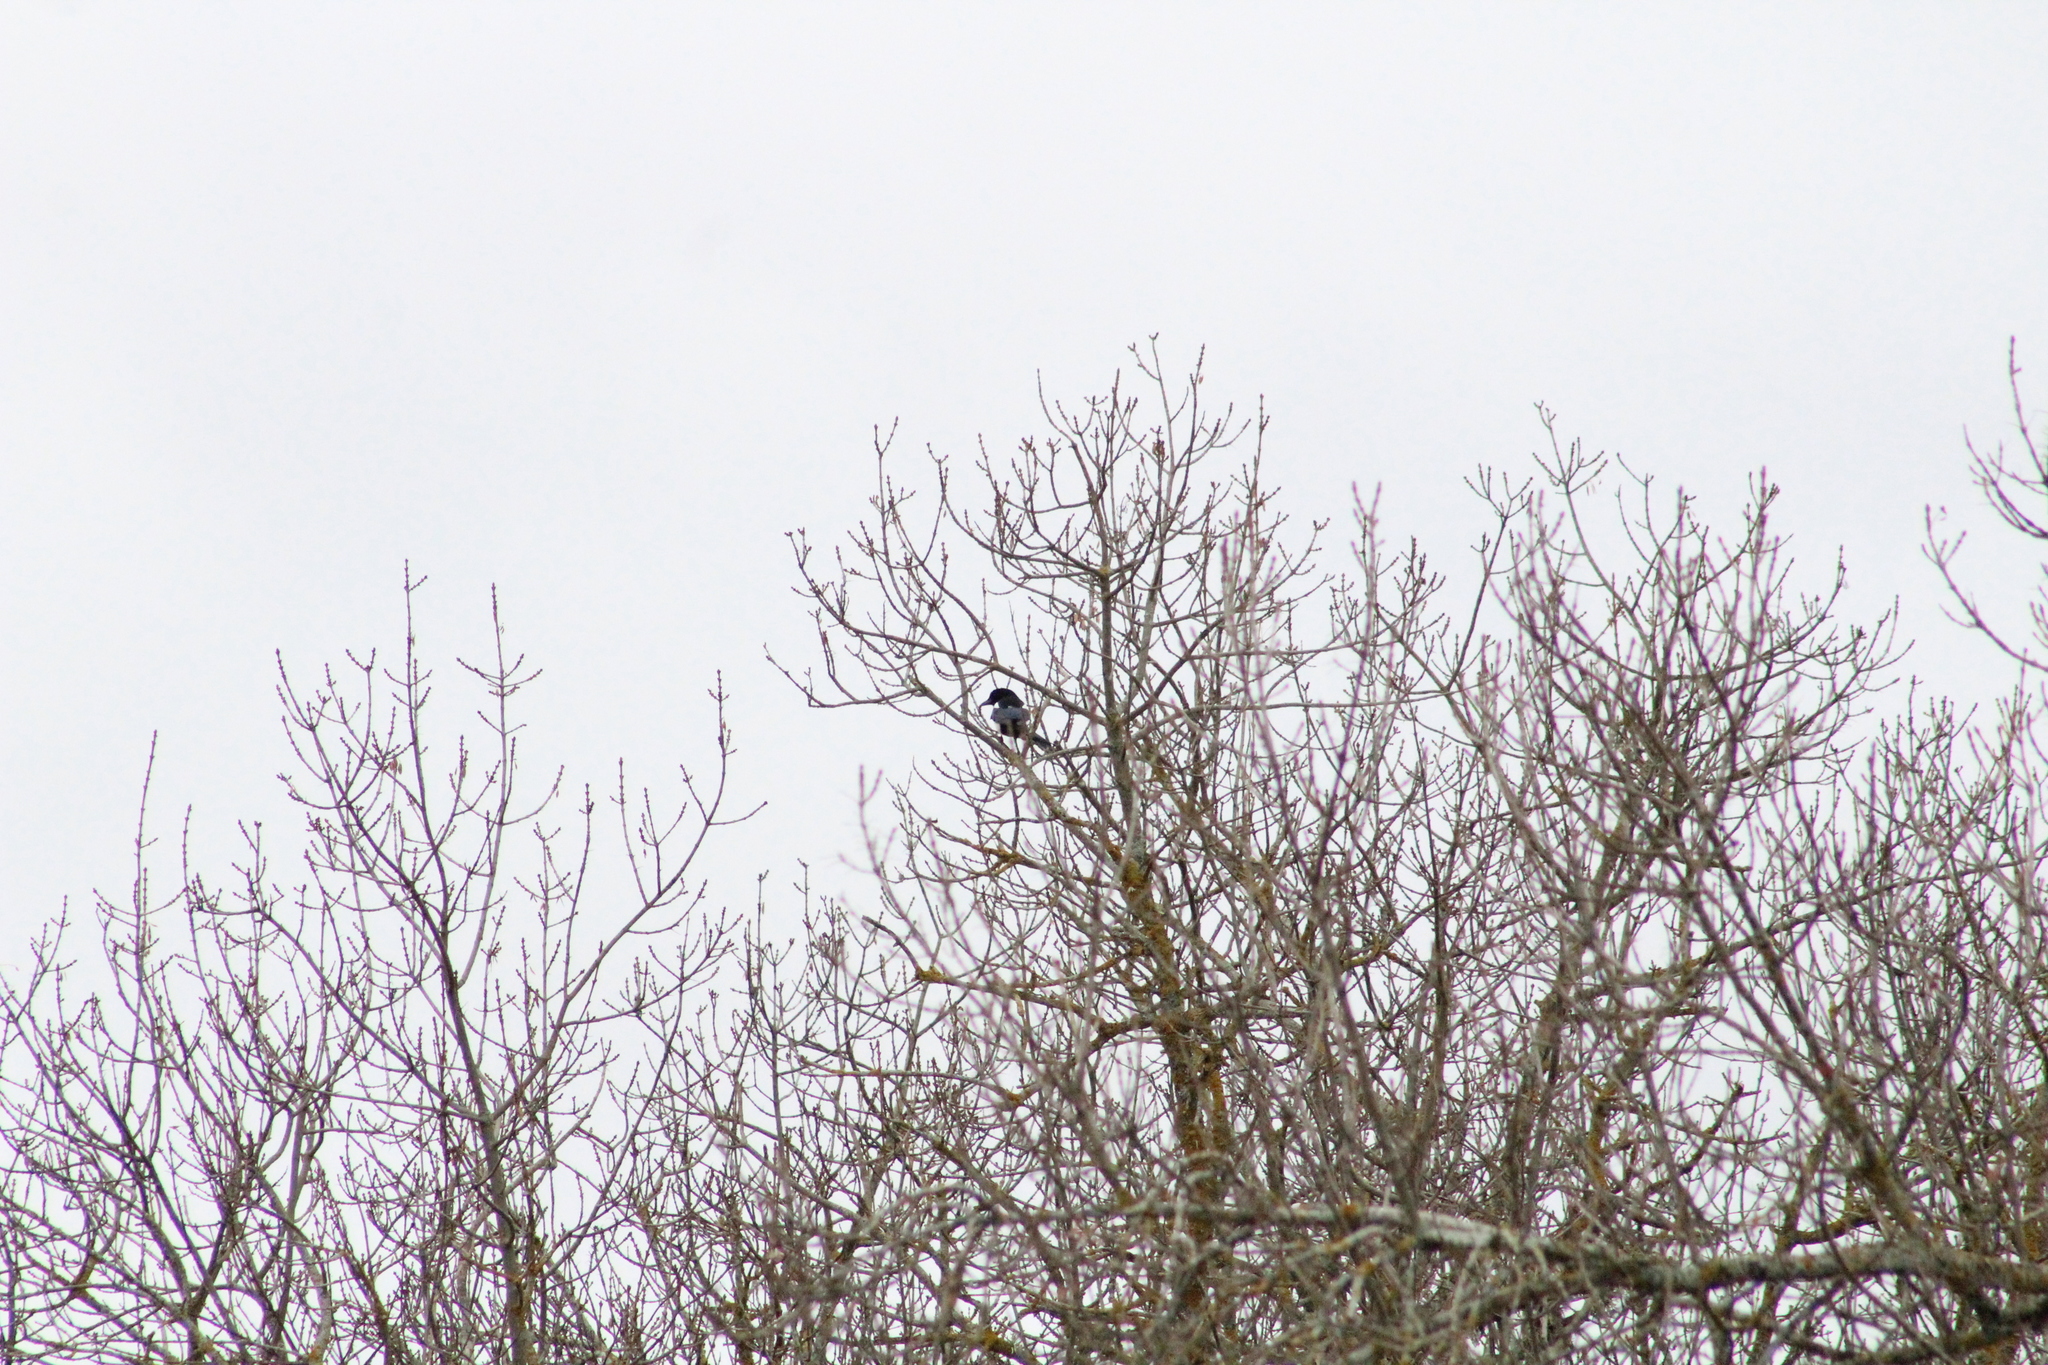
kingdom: Animalia
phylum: Chordata
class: Aves
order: Passeriformes
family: Corvidae
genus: Pica
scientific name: Pica pica
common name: Eurasian magpie
